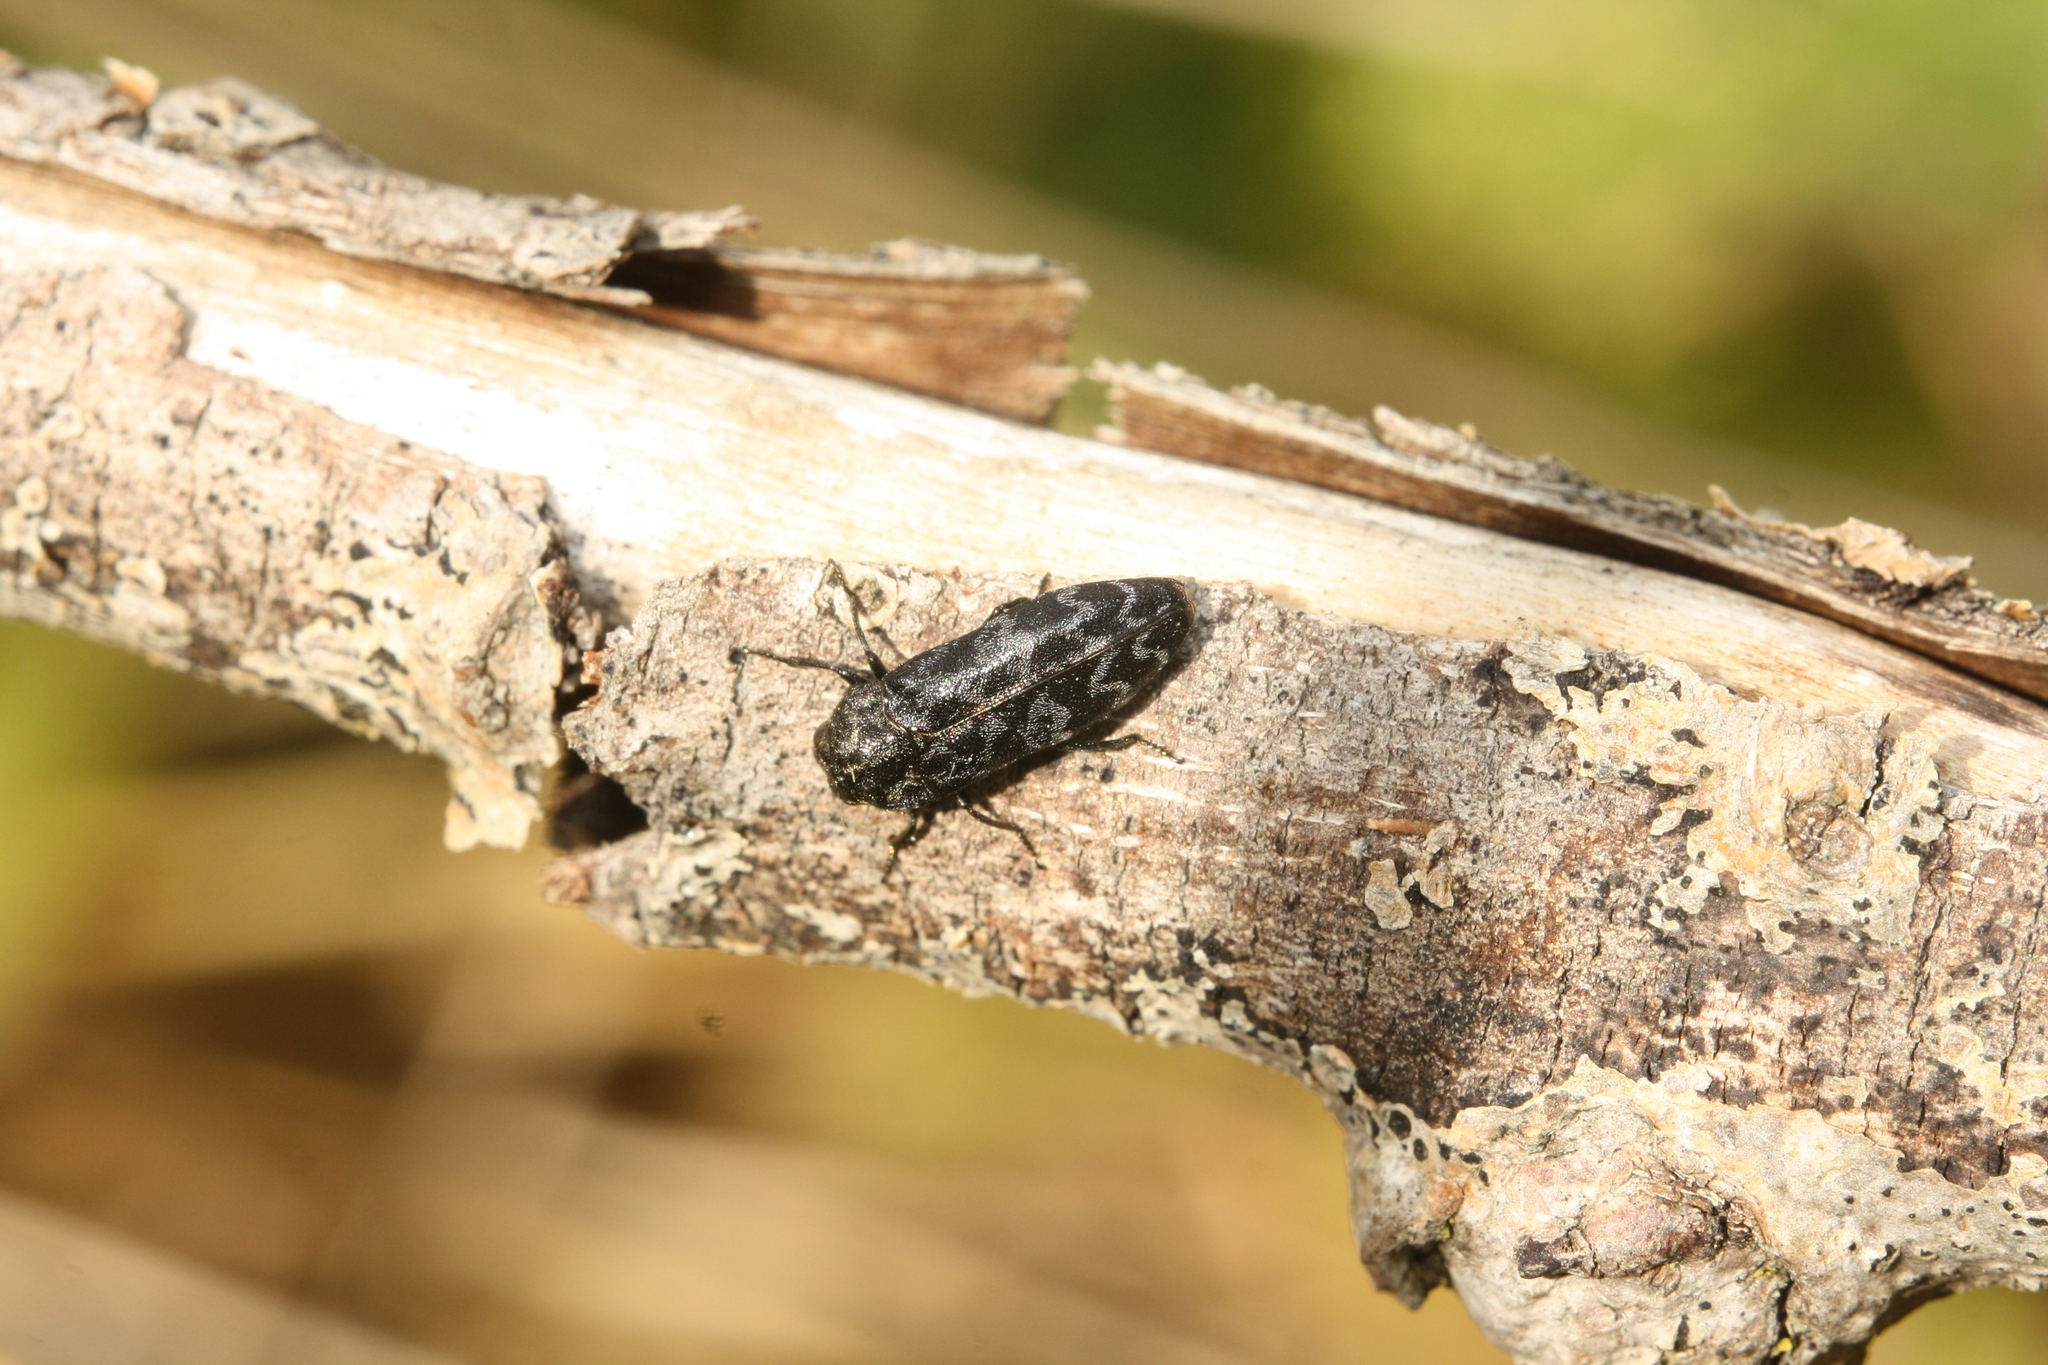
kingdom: Animalia
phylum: Arthropoda
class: Insecta
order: Coleoptera
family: Buprestidae
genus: Coraebus
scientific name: Coraebus rubi
